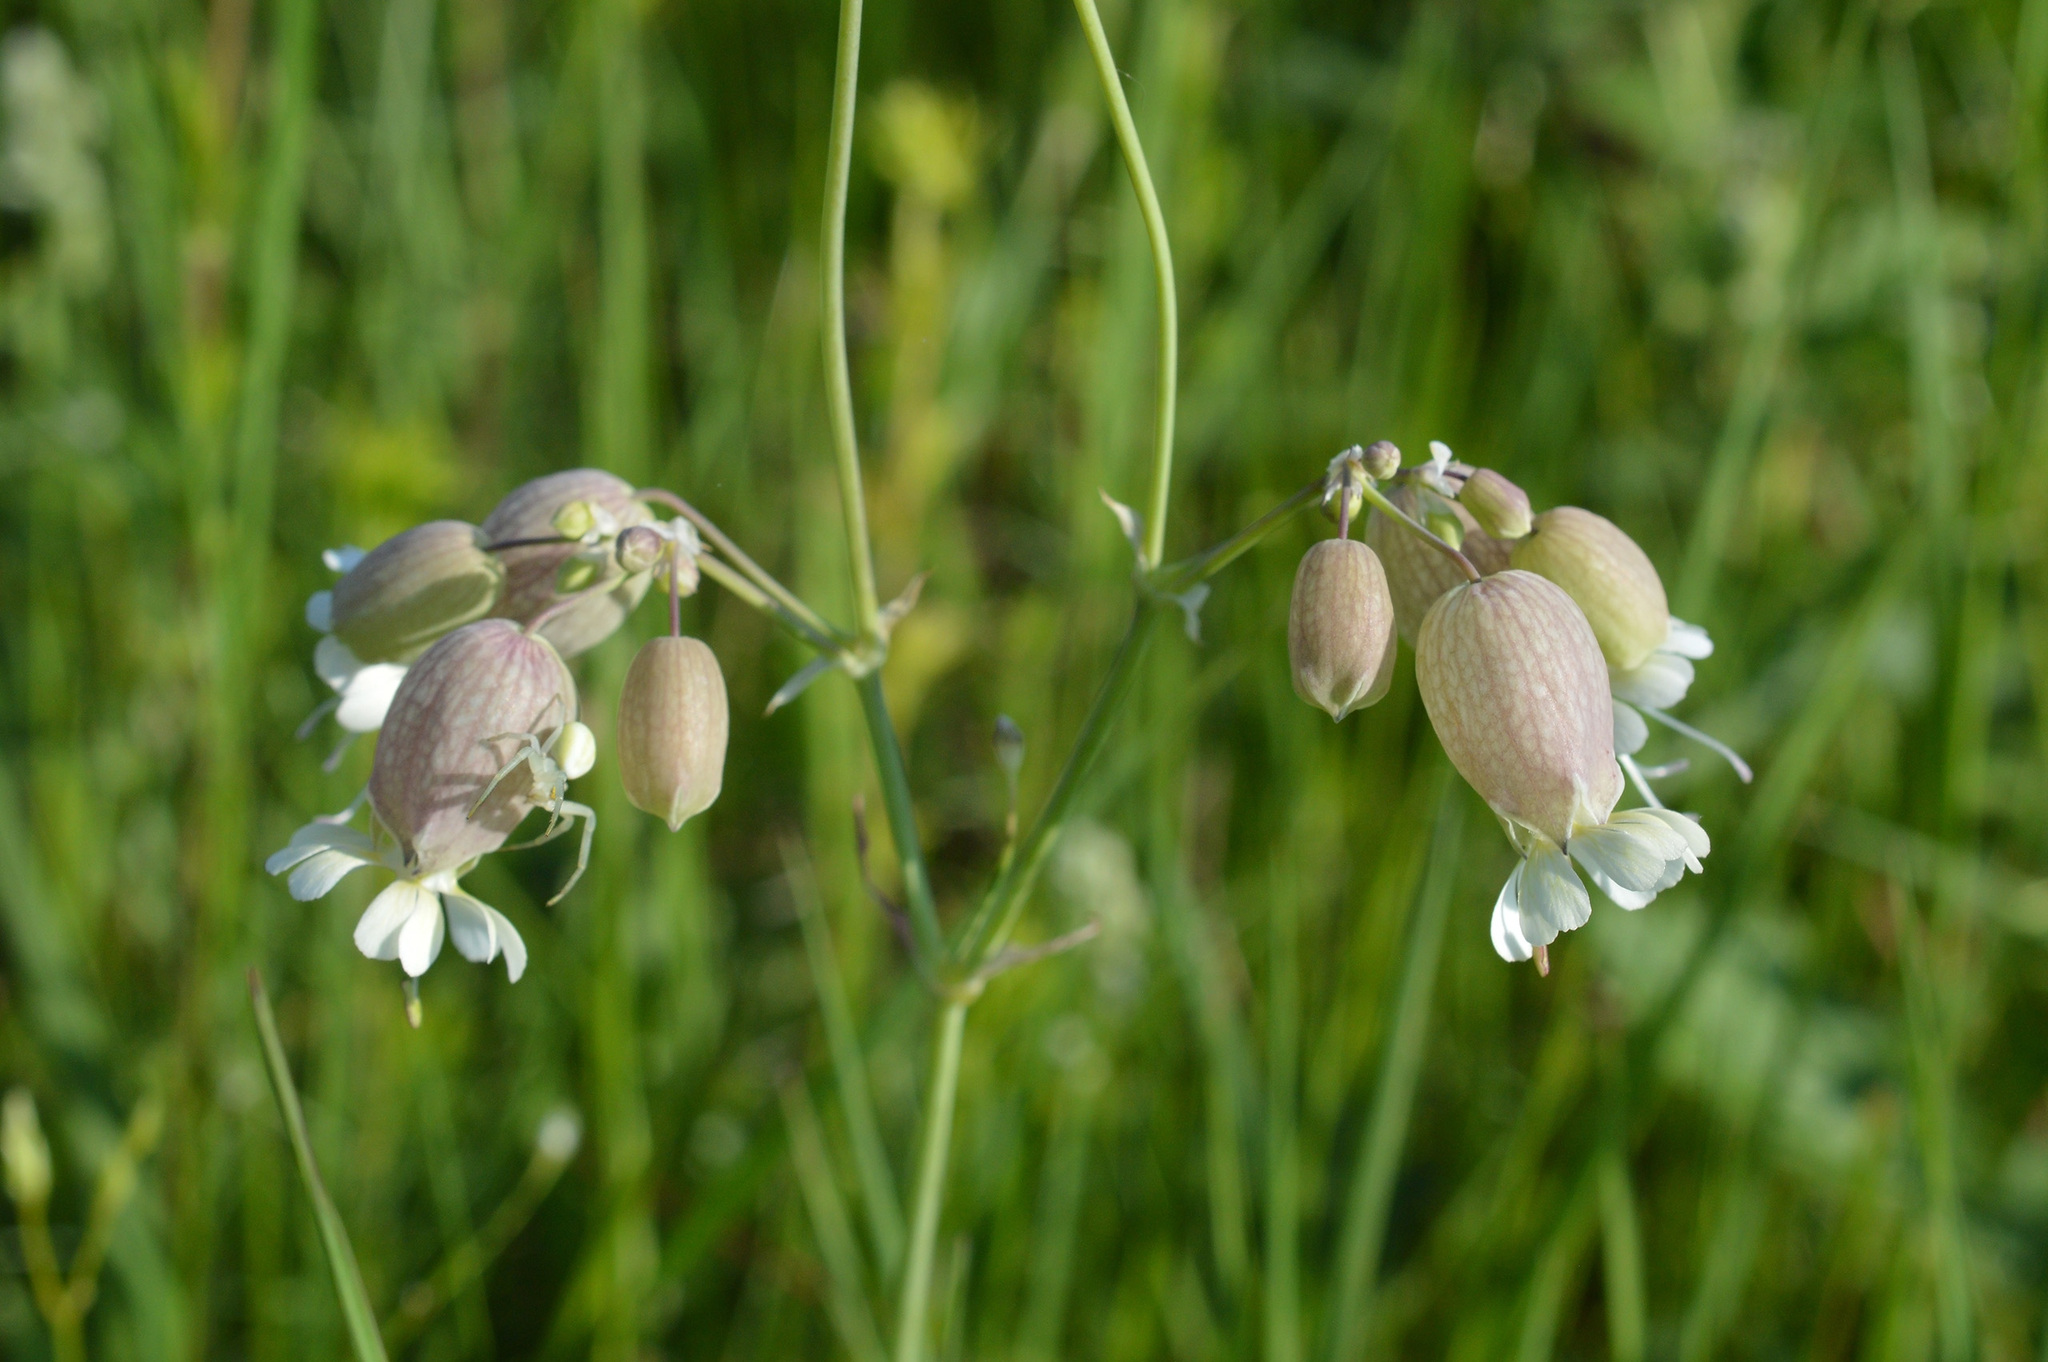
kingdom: Plantae
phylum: Tracheophyta
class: Magnoliopsida
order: Caryophyllales
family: Caryophyllaceae
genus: Silene
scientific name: Silene vulgaris
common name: Bladder campion
